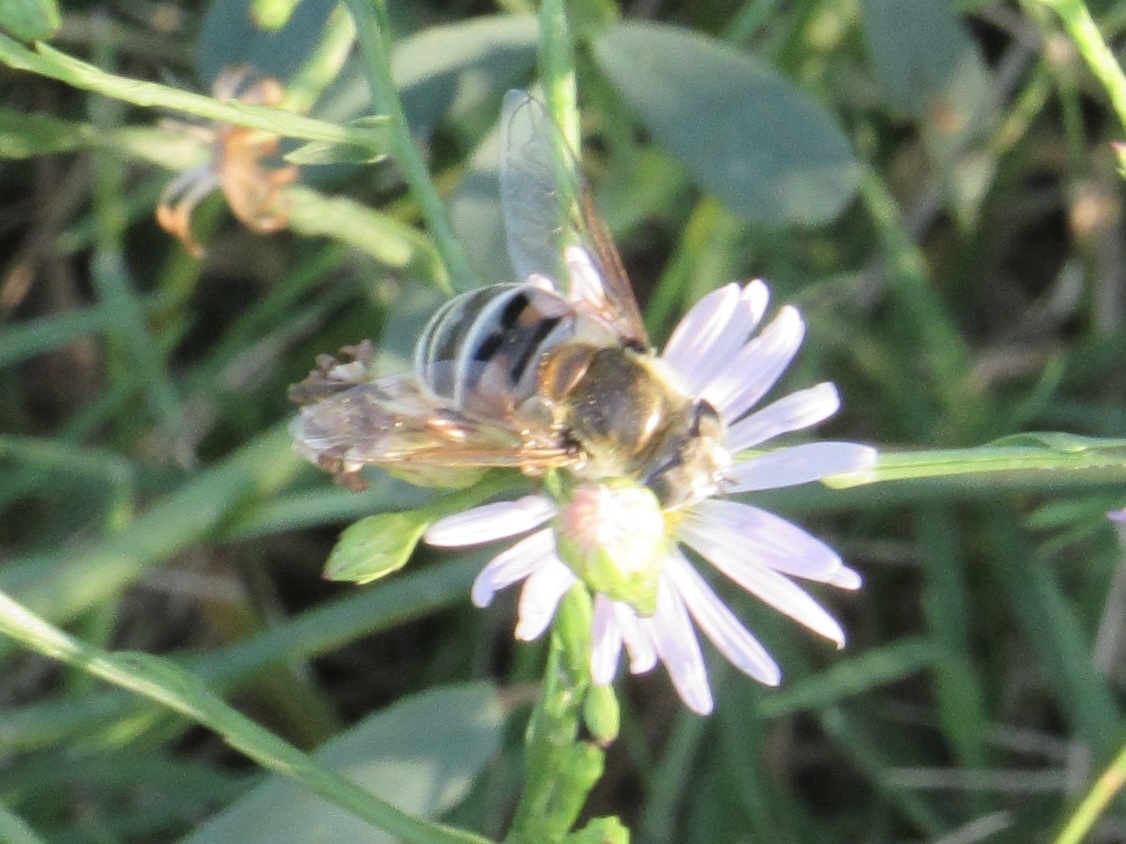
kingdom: Animalia
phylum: Arthropoda
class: Insecta
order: Diptera
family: Syrphidae
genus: Eristalis
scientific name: Eristalis stipator
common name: Yellow-shouldered drone fly
